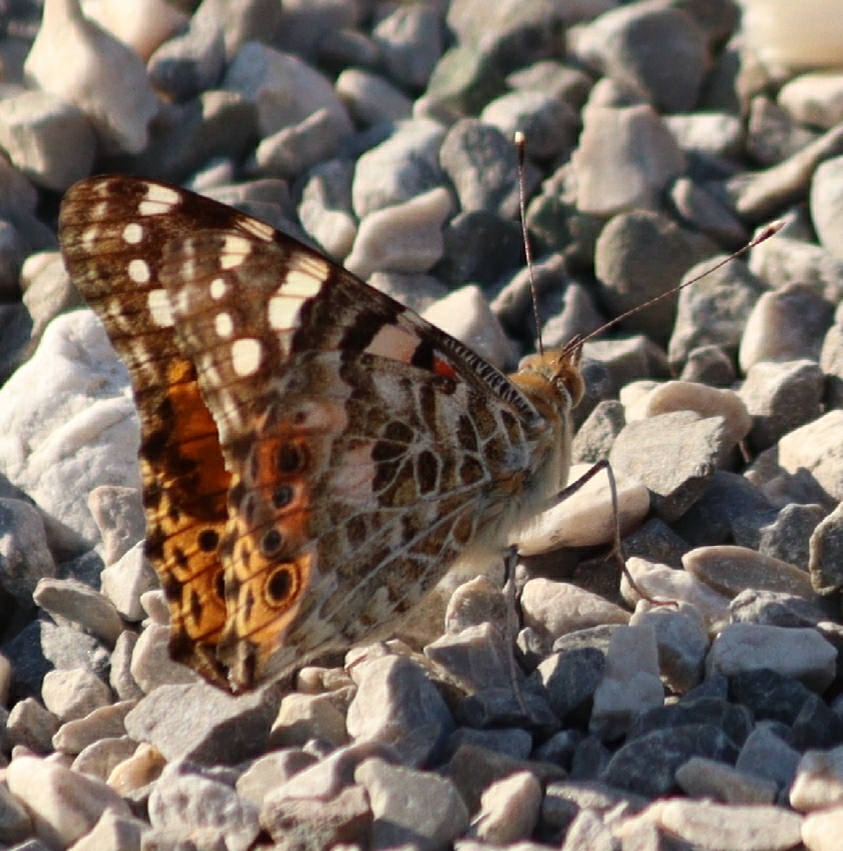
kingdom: Animalia
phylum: Arthropoda
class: Insecta
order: Lepidoptera
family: Nymphalidae
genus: Vanessa
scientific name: Vanessa cardui
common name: Painted lady
